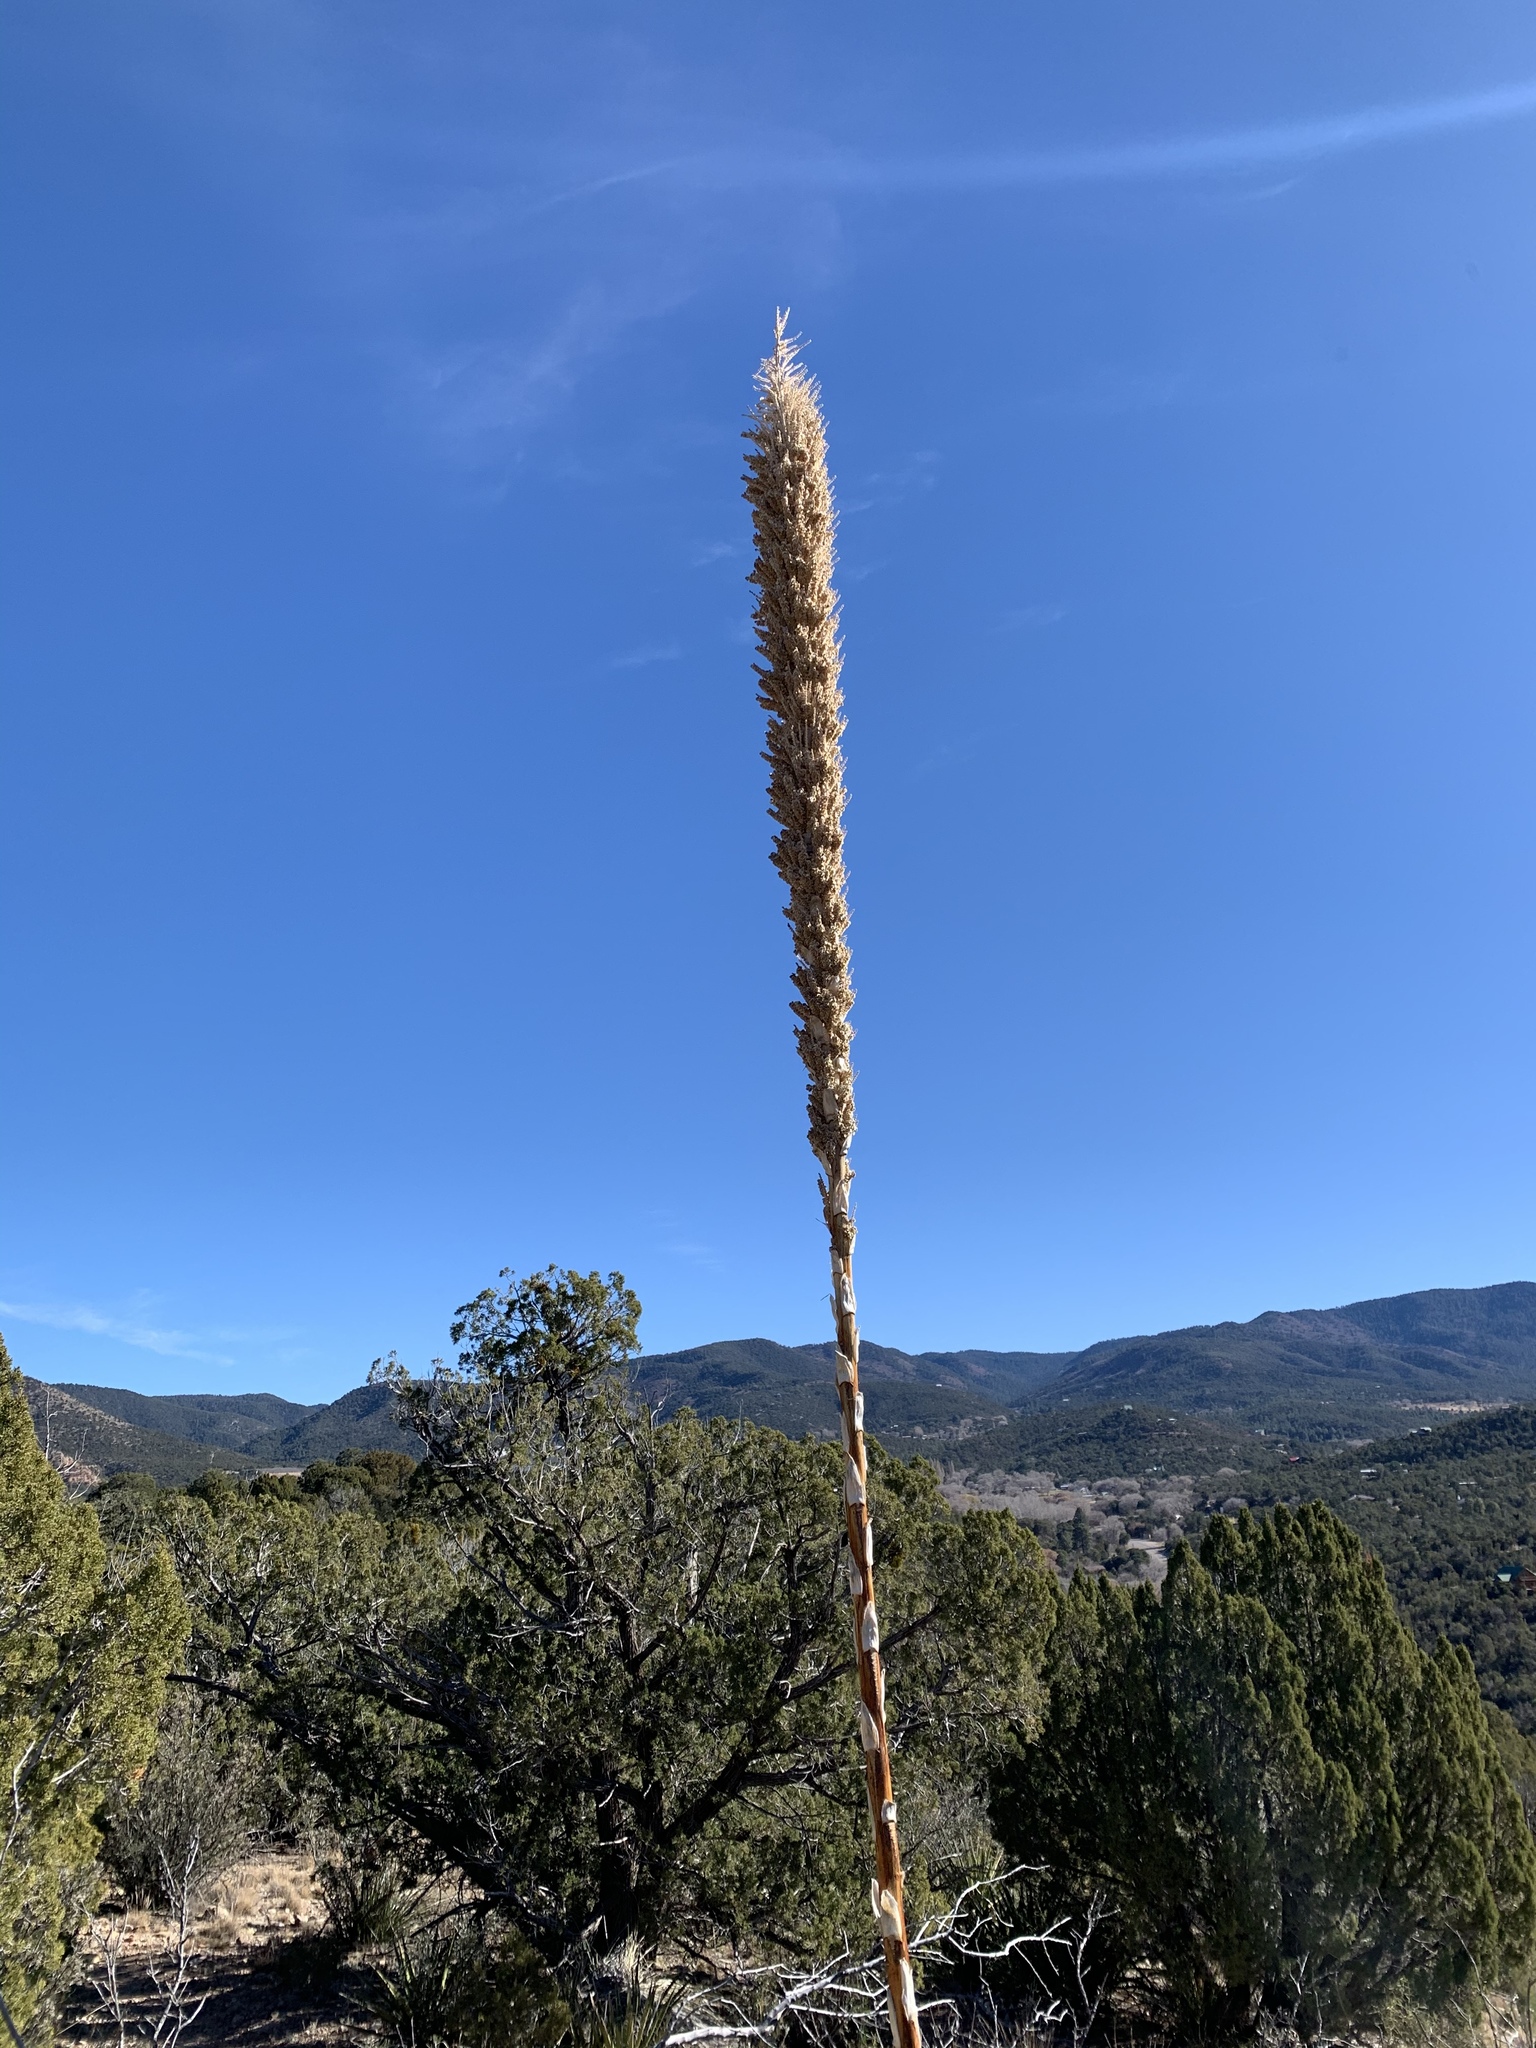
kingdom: Plantae
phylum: Tracheophyta
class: Liliopsida
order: Asparagales
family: Asparagaceae
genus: Dasylirion
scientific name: Dasylirion wheeleri
